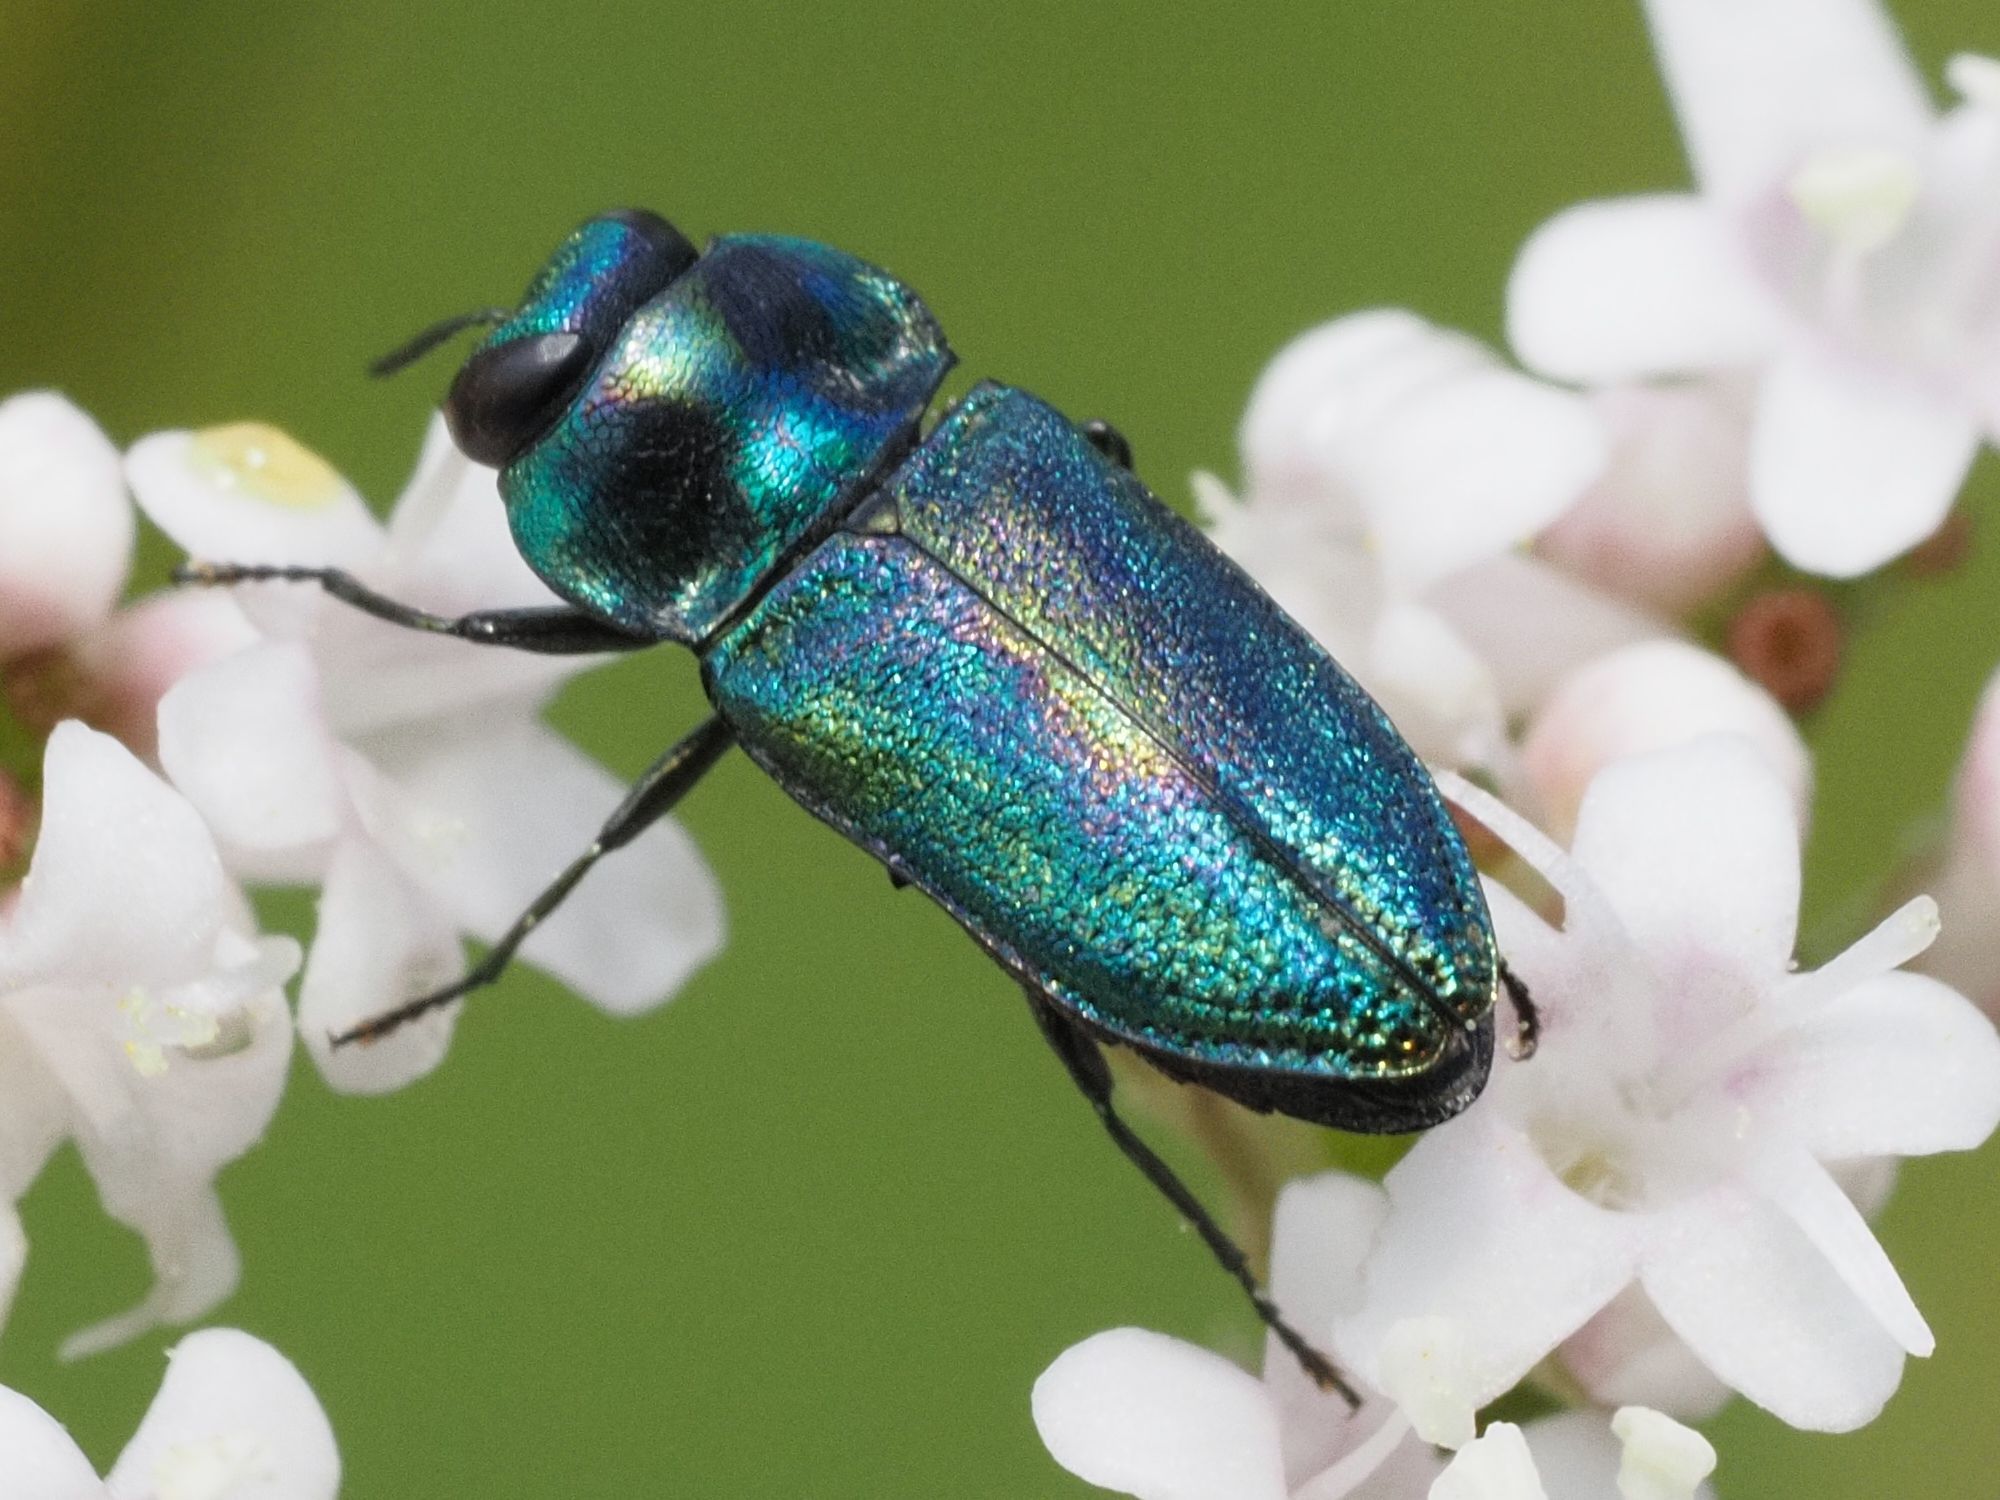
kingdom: Animalia
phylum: Arthropoda
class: Insecta
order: Coleoptera
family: Buprestidae
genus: Anthaxia
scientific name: Anthaxia fulgurans
